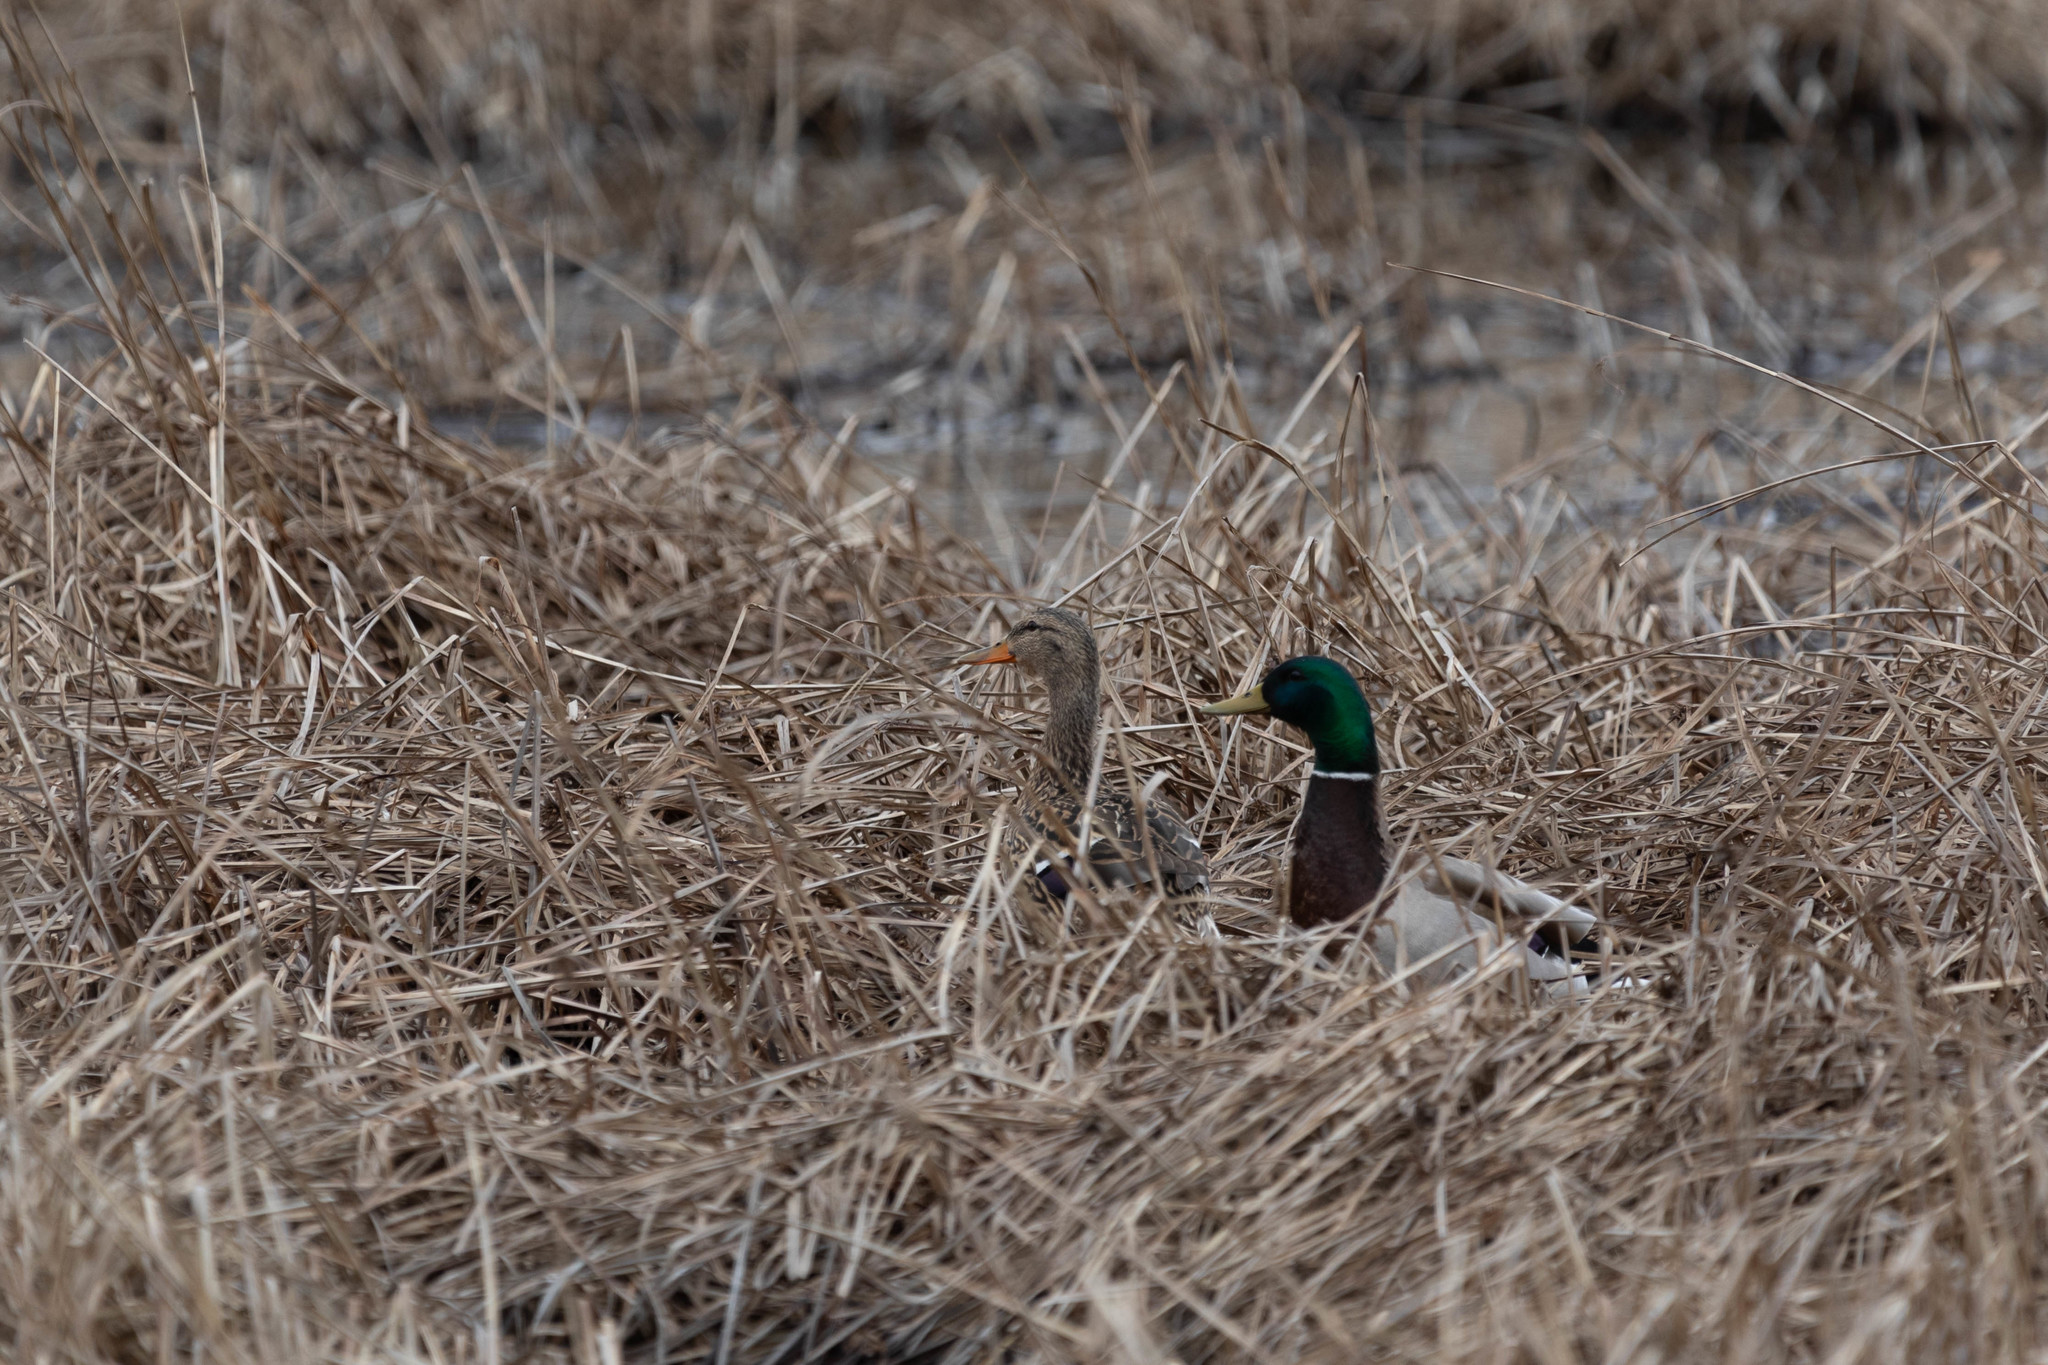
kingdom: Animalia
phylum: Chordata
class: Aves
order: Anseriformes
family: Anatidae
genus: Anas
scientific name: Anas platyrhynchos
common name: Mallard
